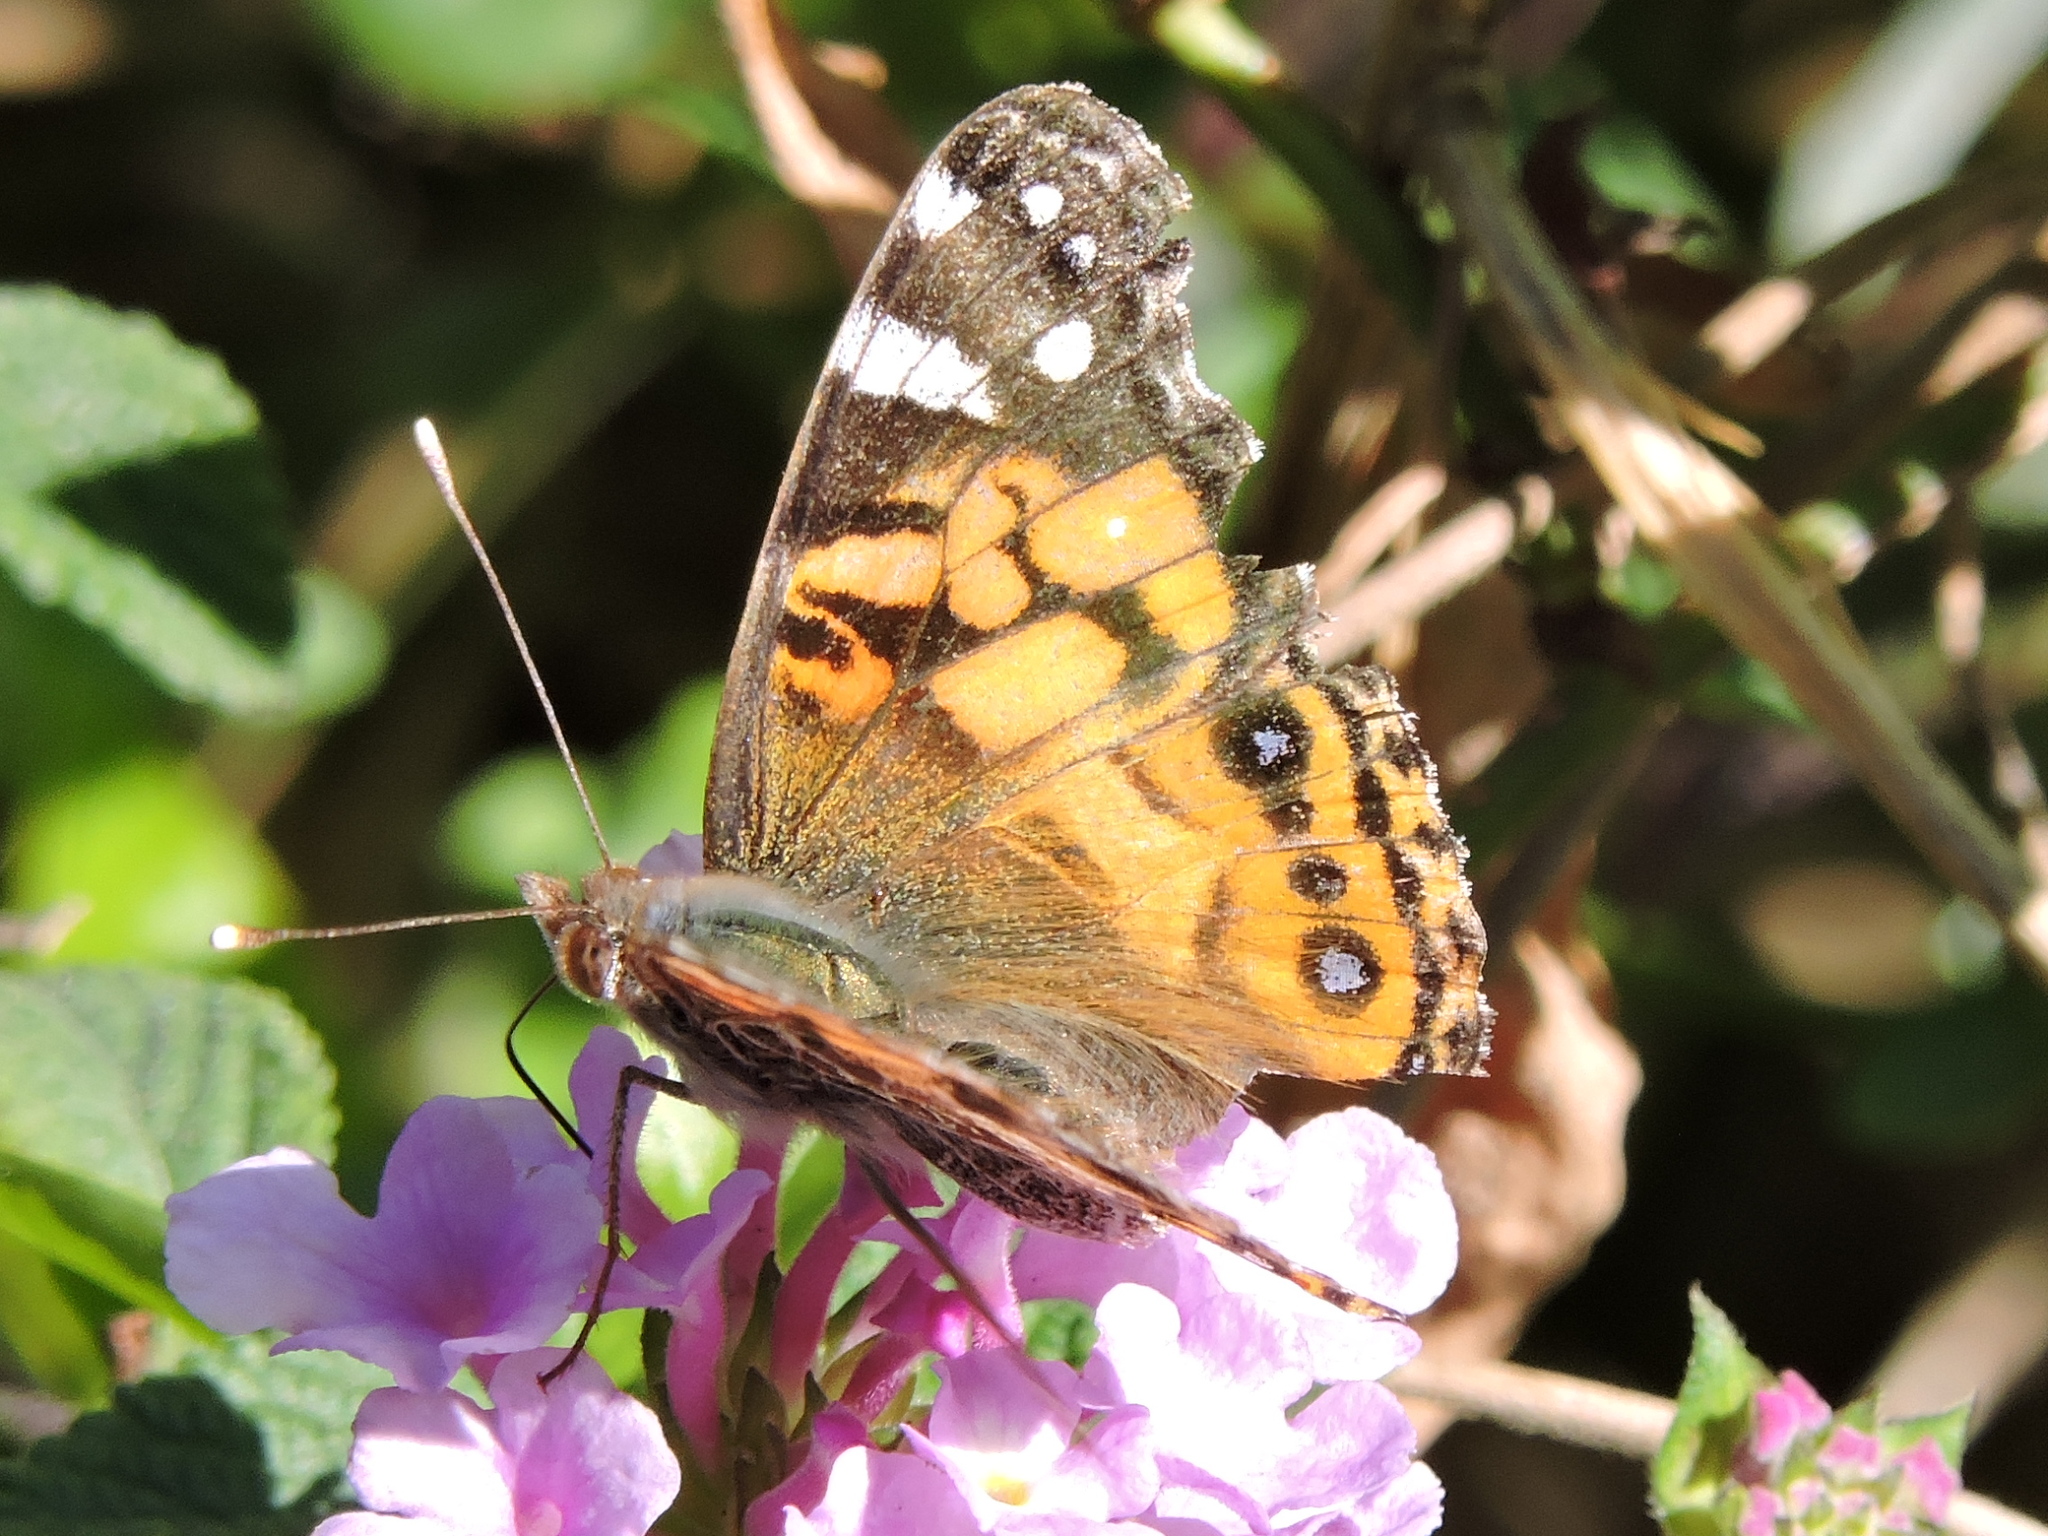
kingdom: Animalia
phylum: Arthropoda
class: Insecta
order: Lepidoptera
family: Nymphalidae
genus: Vanessa
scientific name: Vanessa virginiensis
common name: American lady
